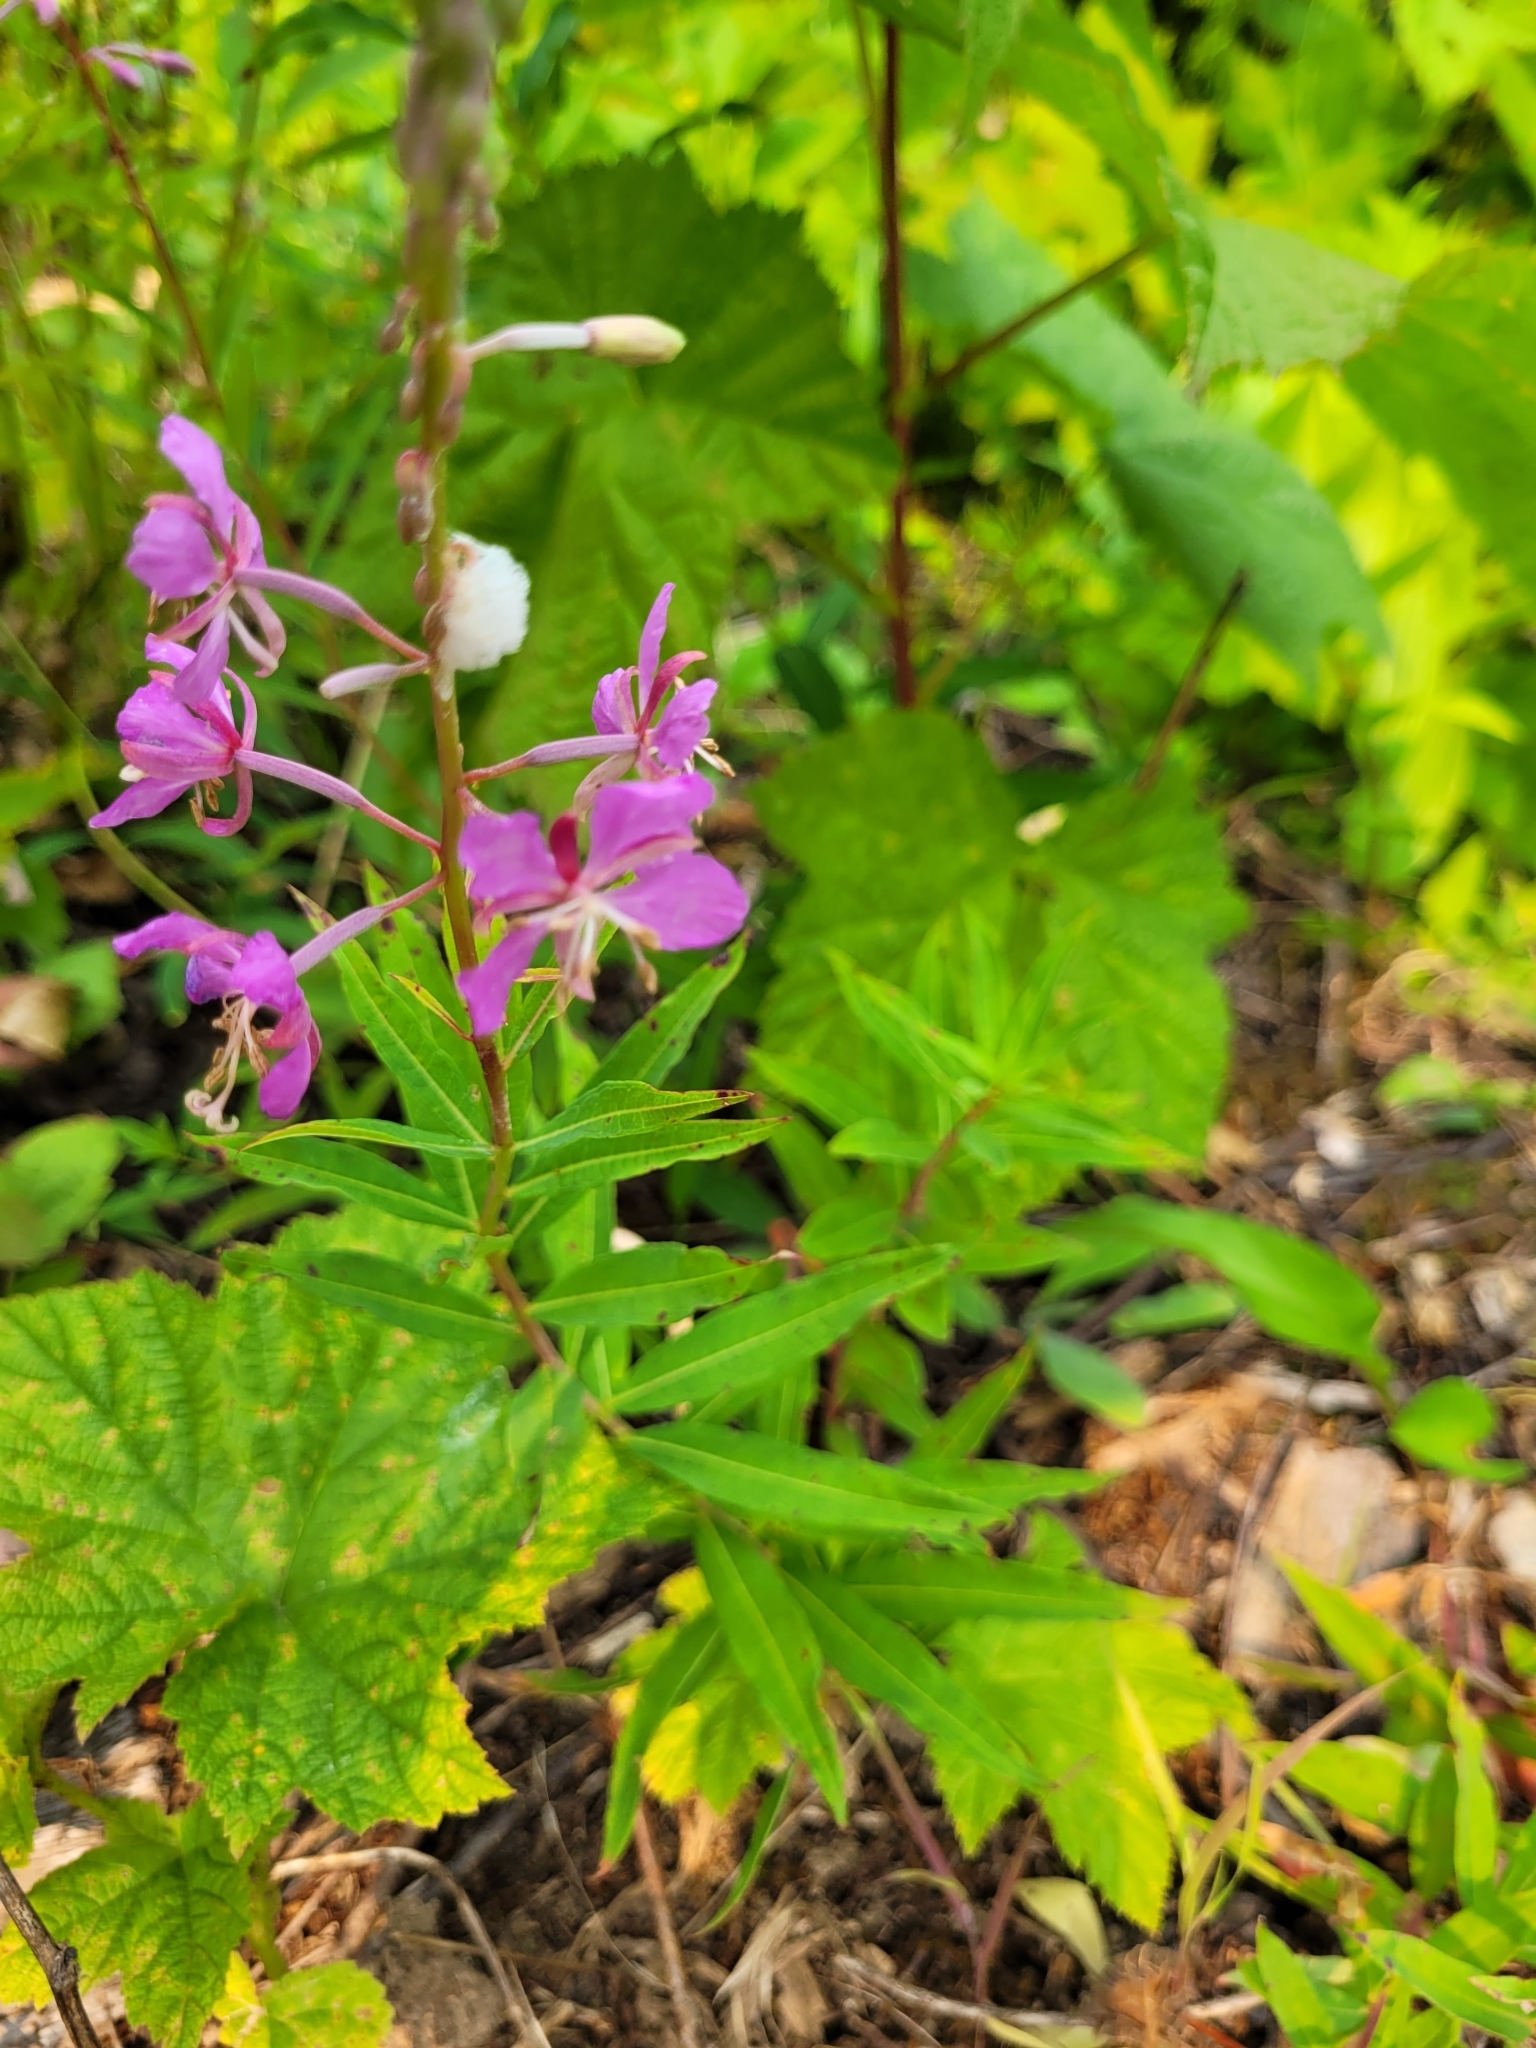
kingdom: Plantae
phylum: Tracheophyta
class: Magnoliopsida
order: Myrtales
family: Onagraceae
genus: Chamaenerion
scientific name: Chamaenerion angustifolium
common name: Fireweed
